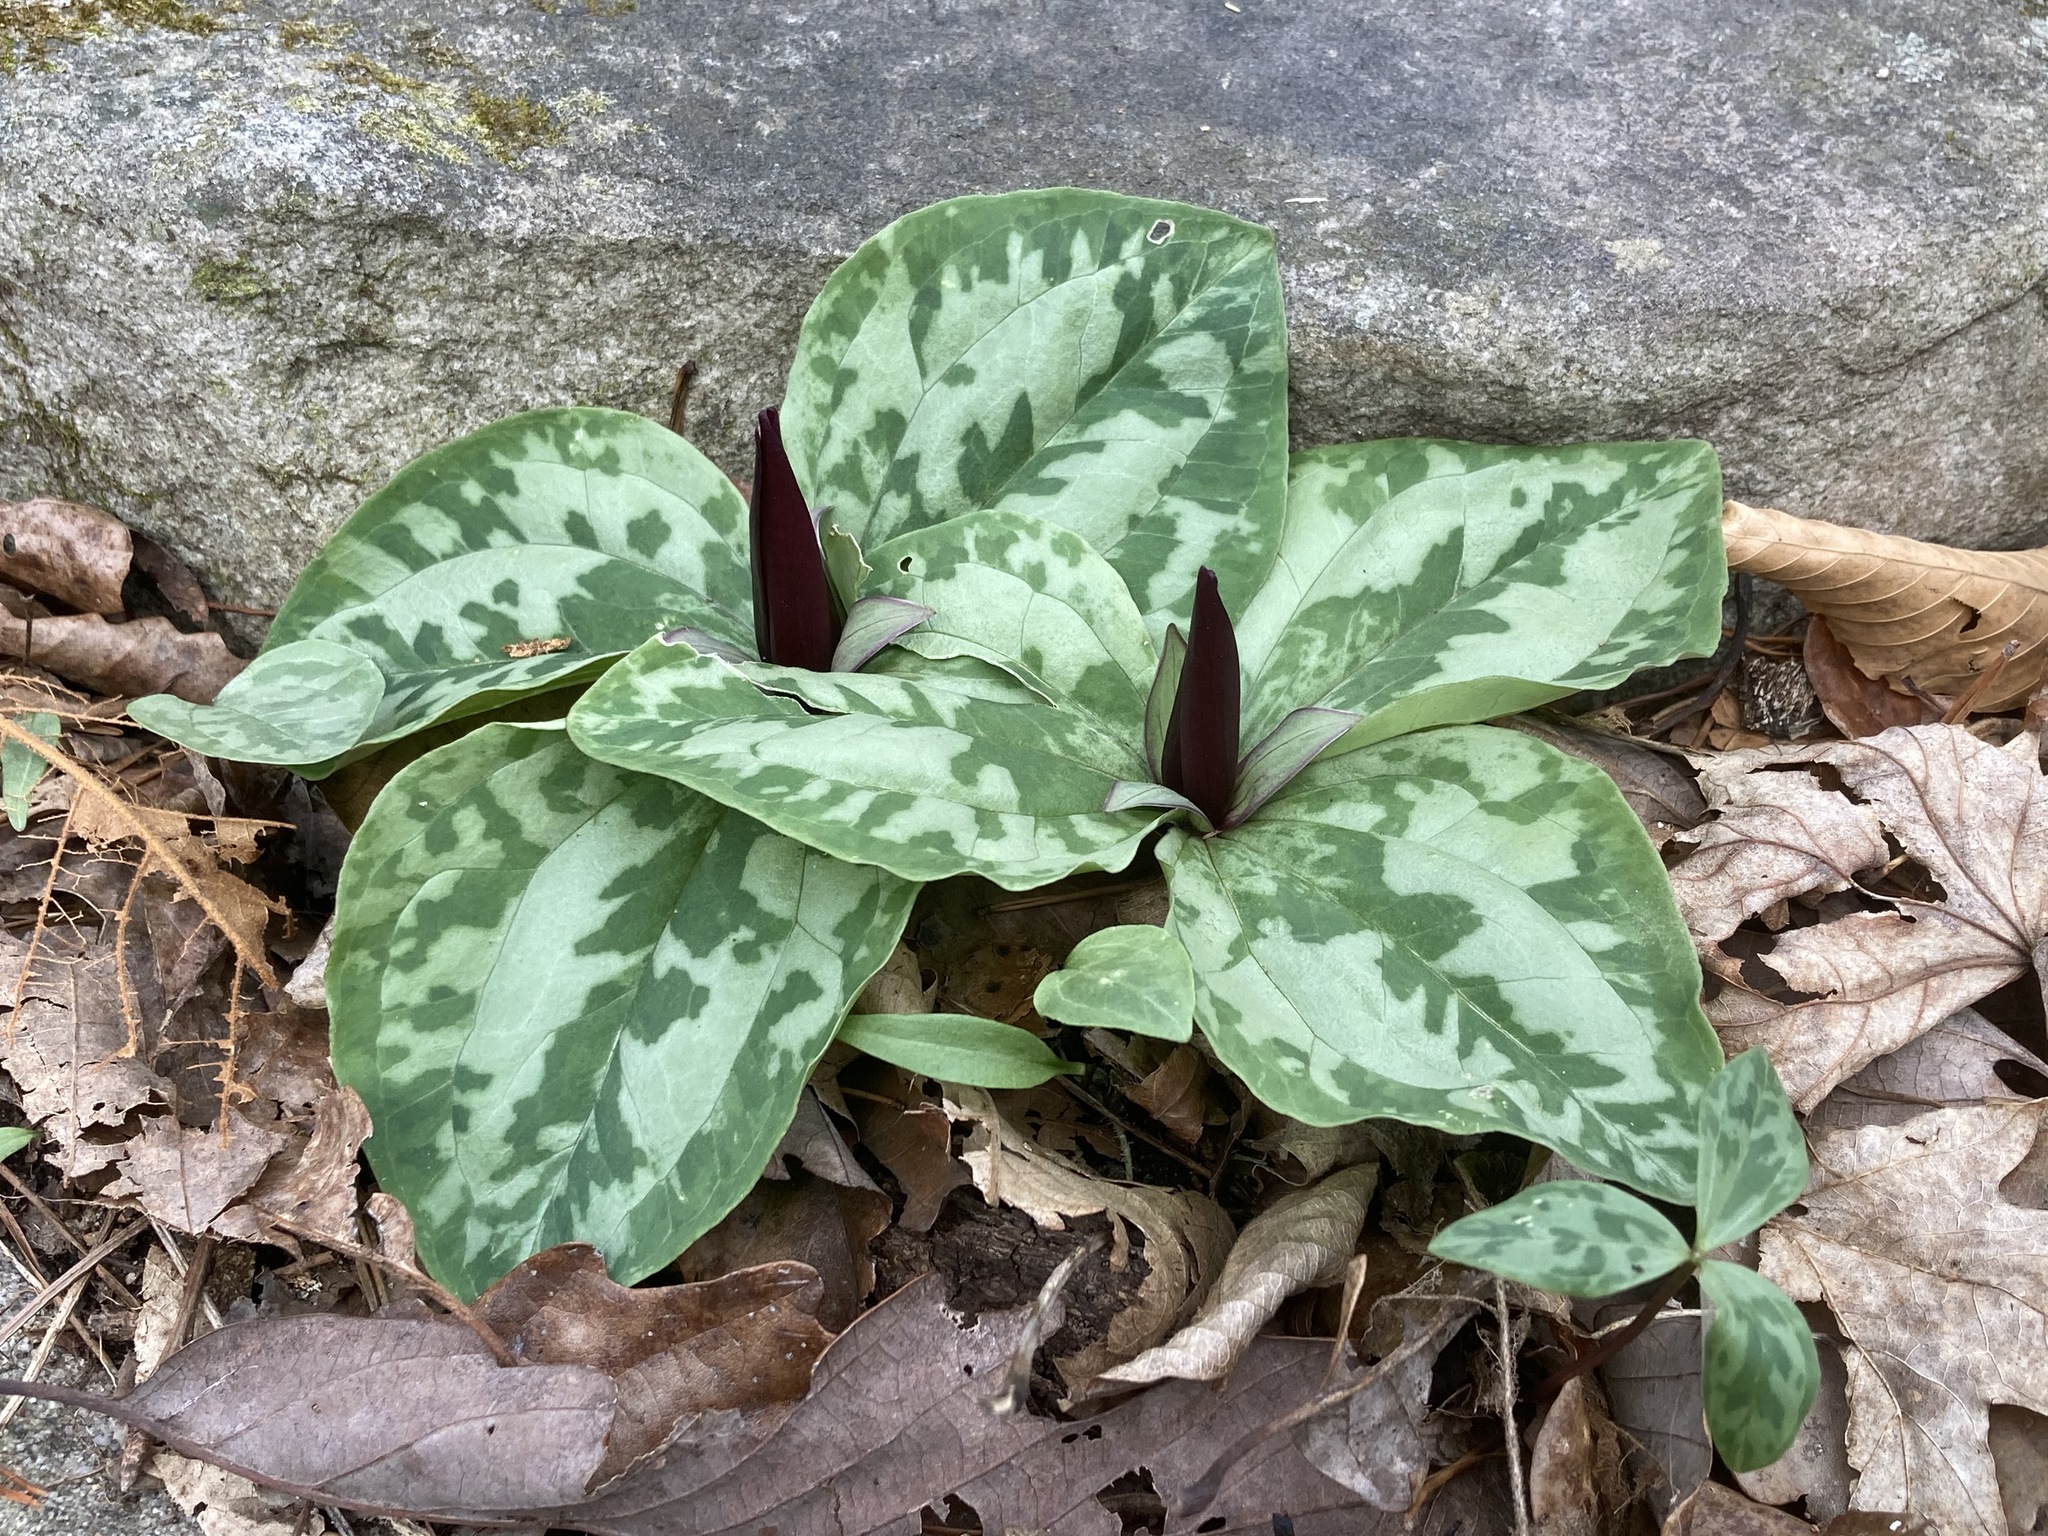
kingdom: Plantae
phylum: Tracheophyta
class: Liliopsida
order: Liliales
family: Melanthiaceae
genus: Trillium
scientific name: Trillium decumbens
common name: Decumbent trillium
